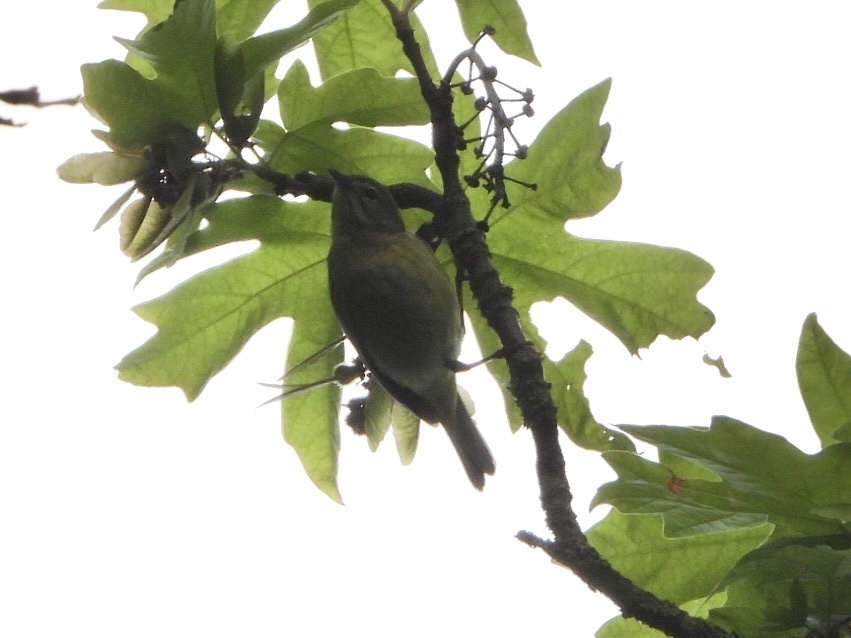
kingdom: Animalia
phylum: Chordata
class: Aves
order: Passeriformes
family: Parulidae
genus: Leiothlypis
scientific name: Leiothlypis celata
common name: Orange-crowned warbler
